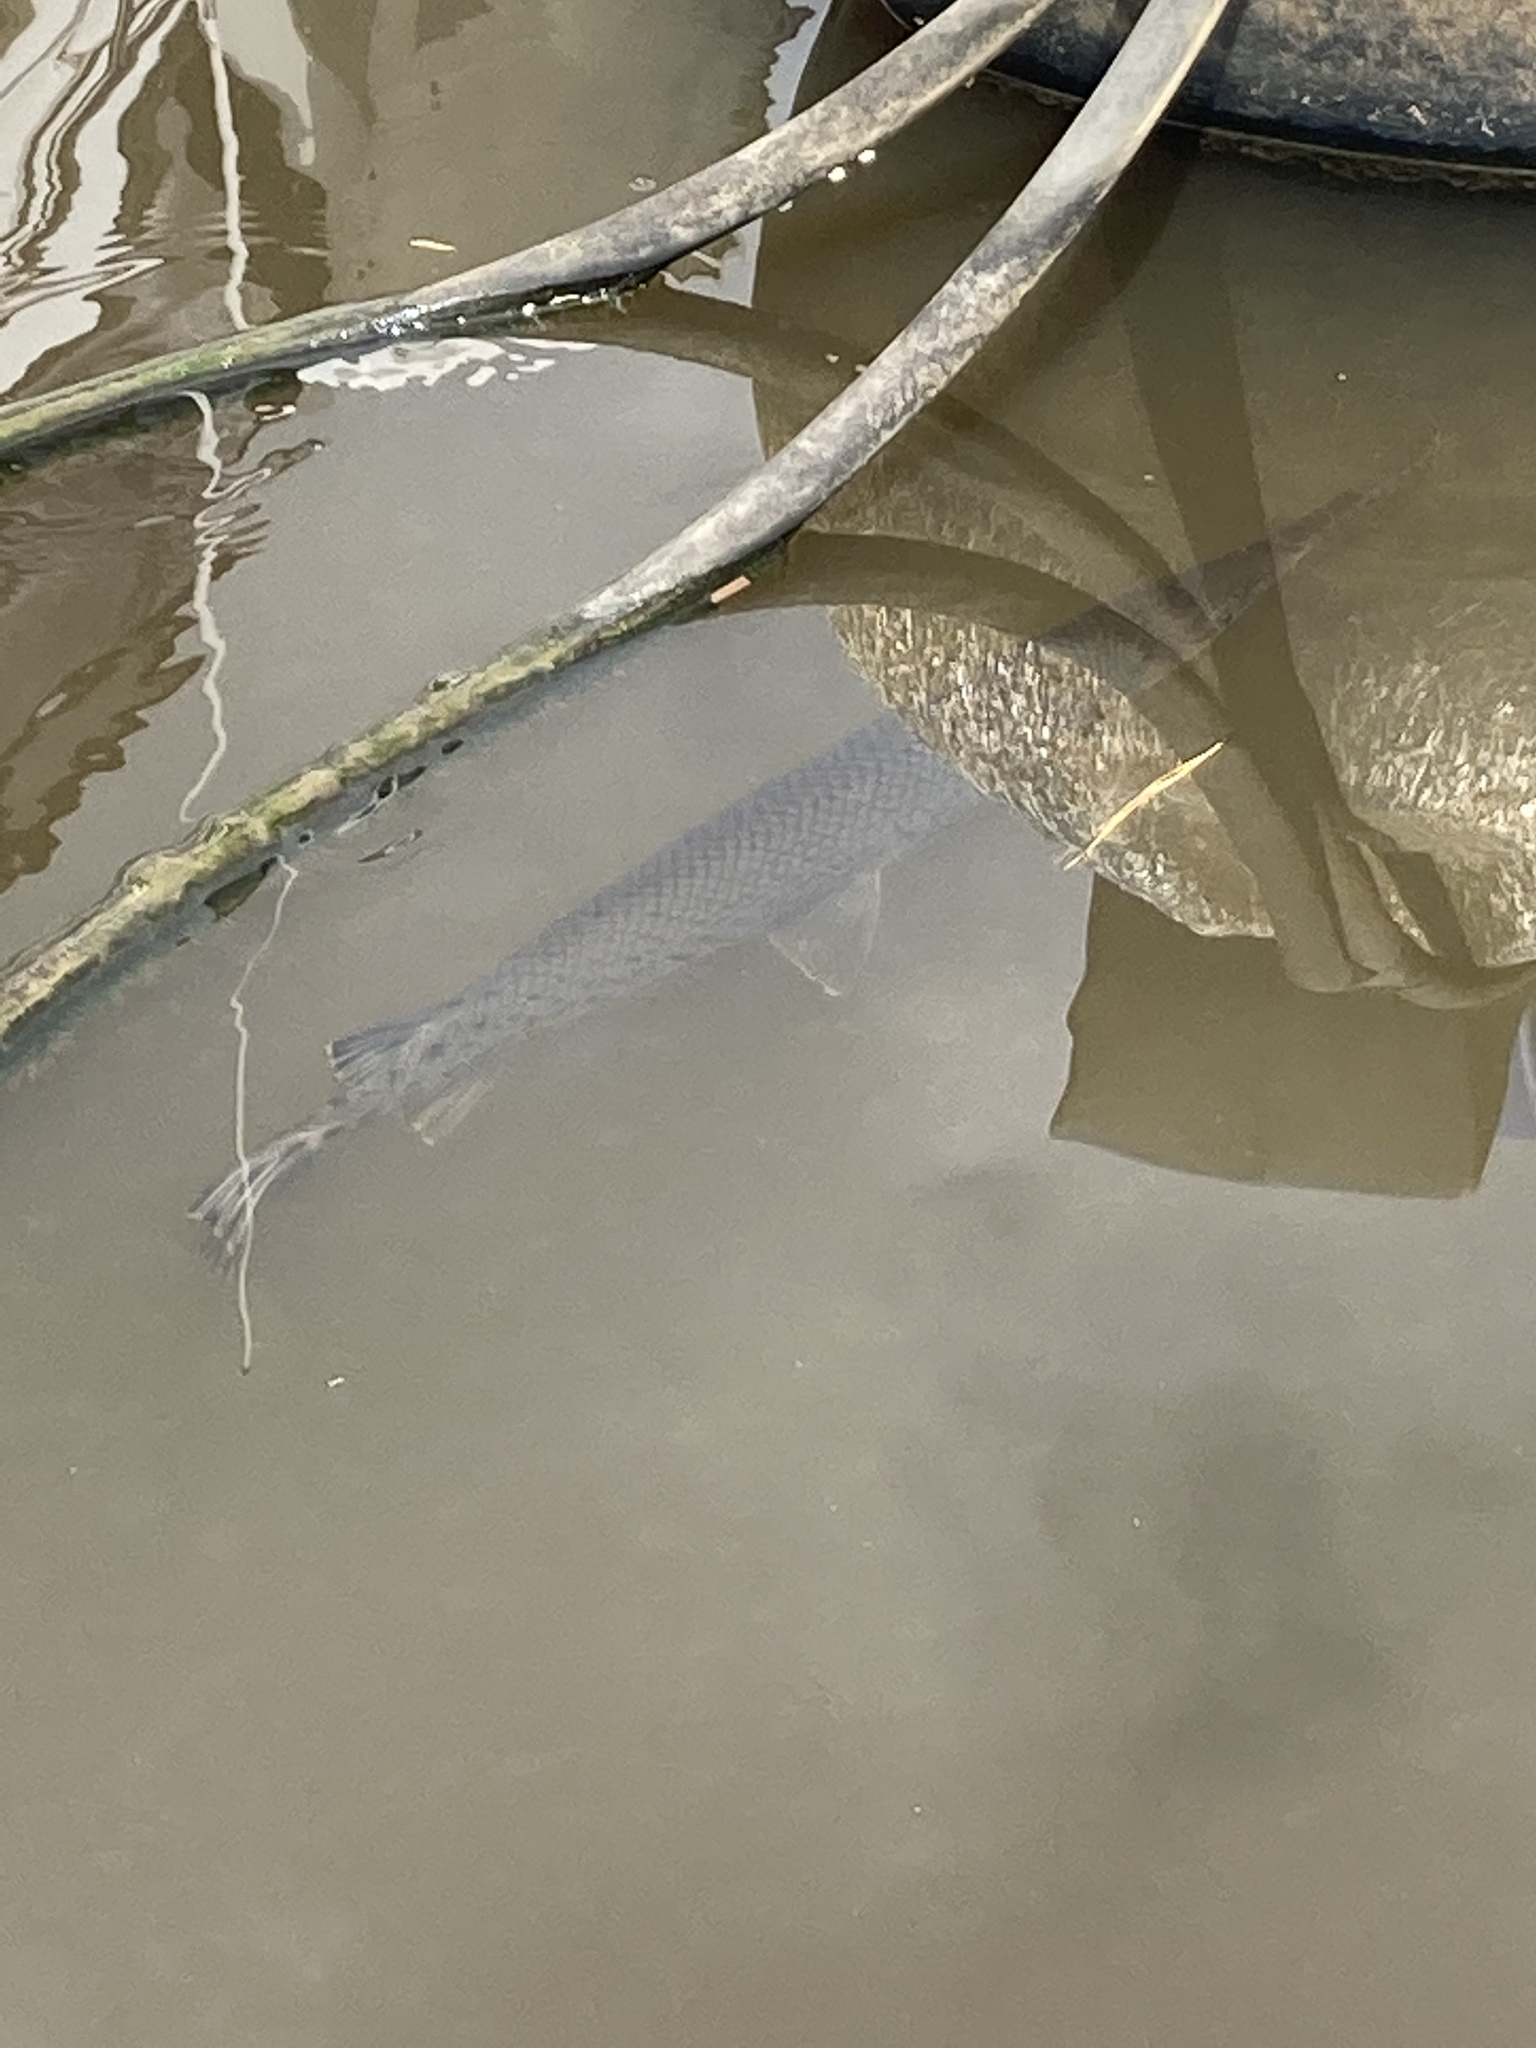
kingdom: Animalia
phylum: Chordata
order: Lepisosteiformes
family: Lepisosteidae
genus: Lepisosteus
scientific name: Lepisosteus osseus
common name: Longnose gar
